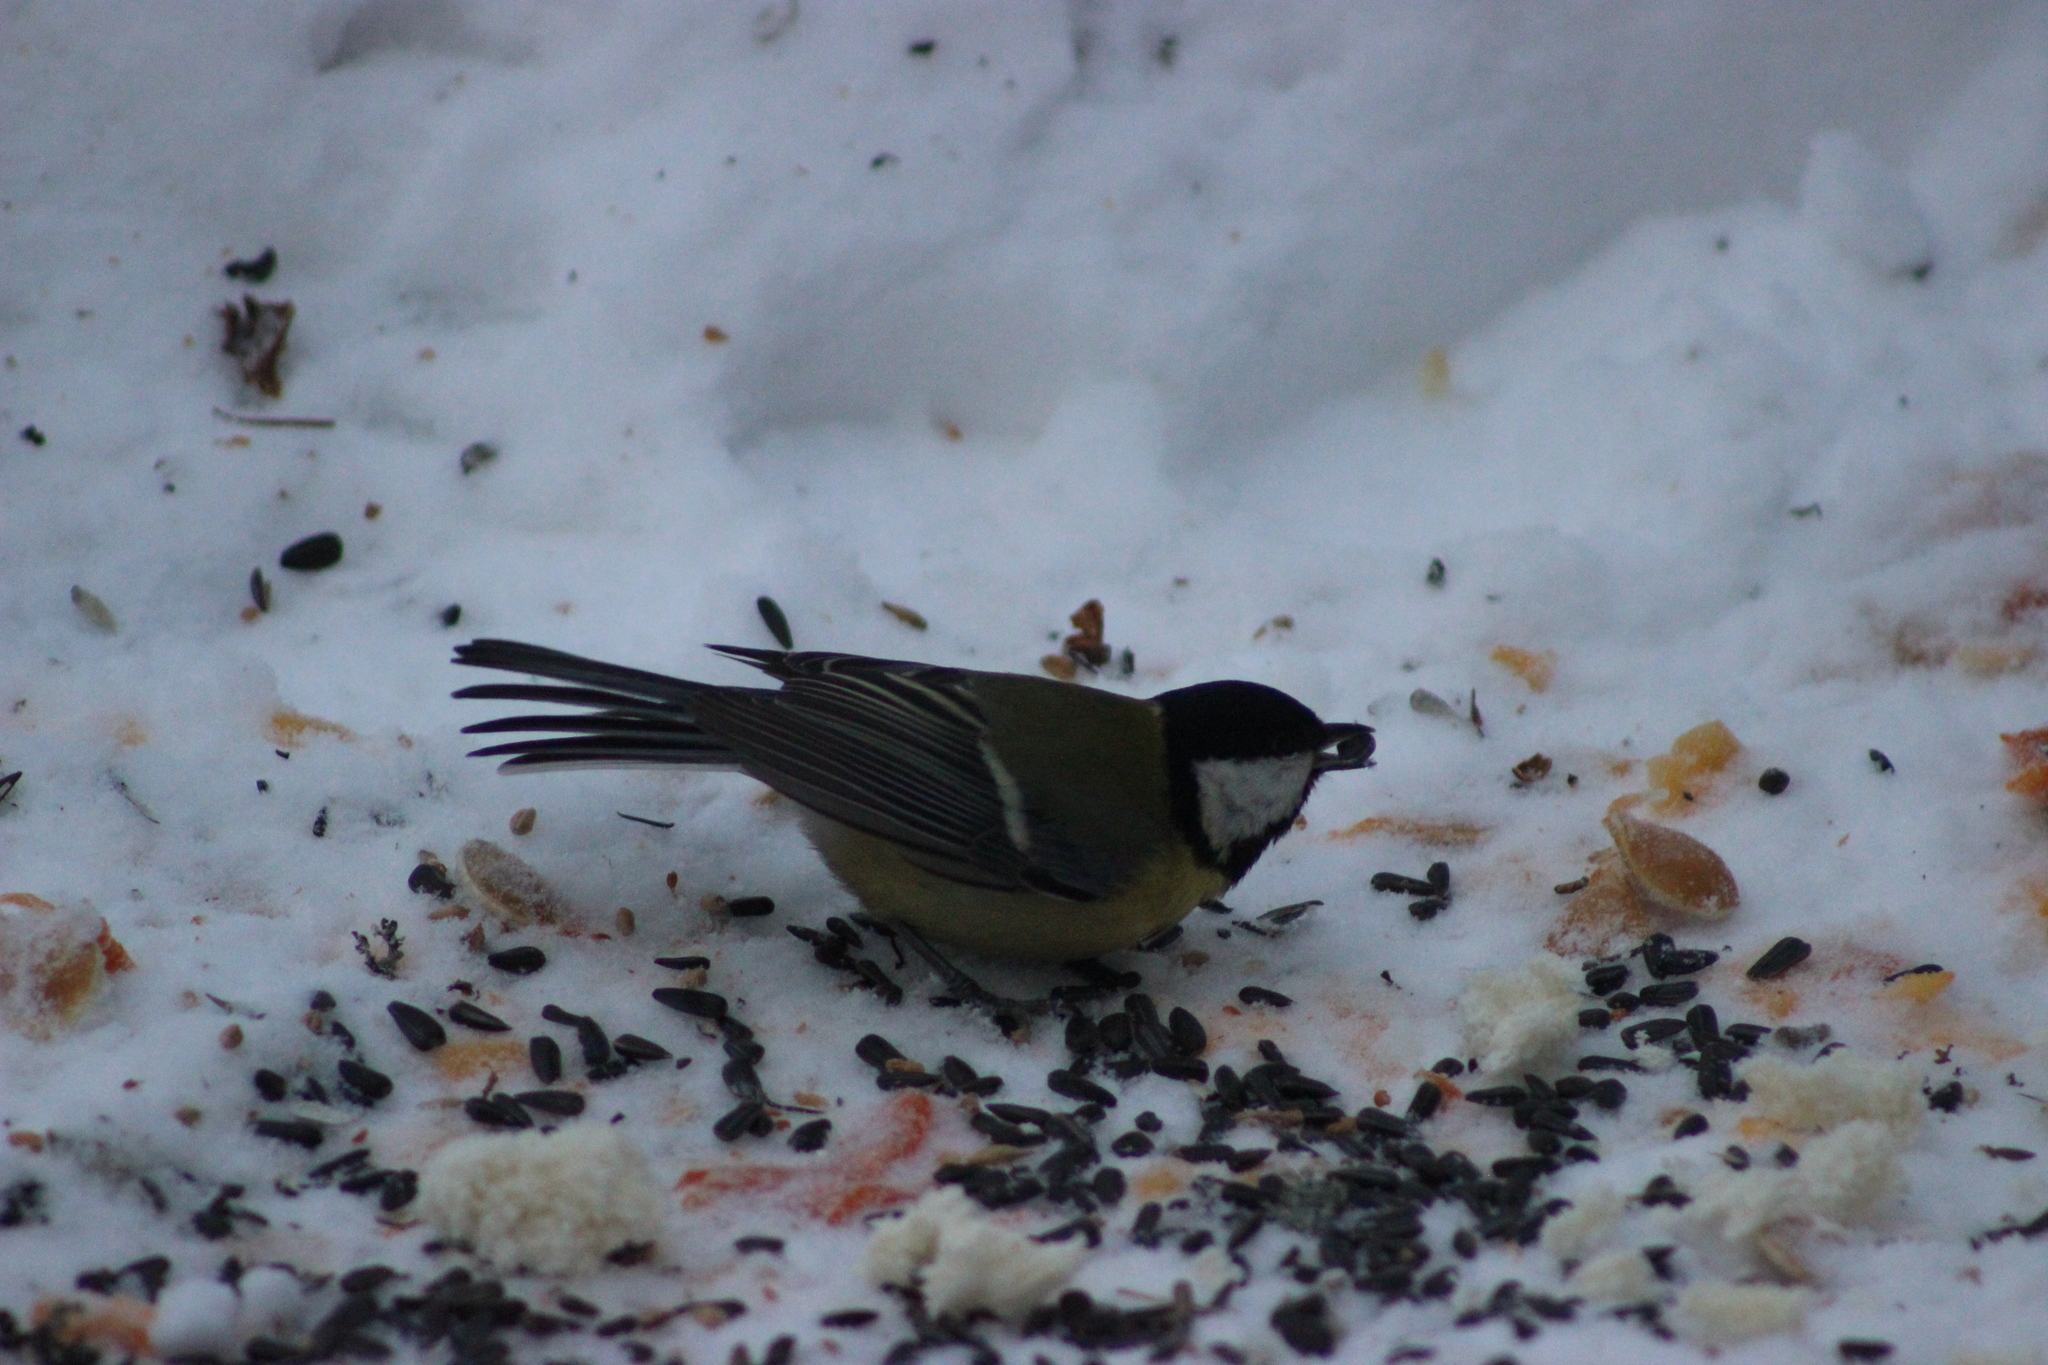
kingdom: Animalia
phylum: Chordata
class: Aves
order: Passeriformes
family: Paridae
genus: Parus
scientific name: Parus major
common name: Great tit
